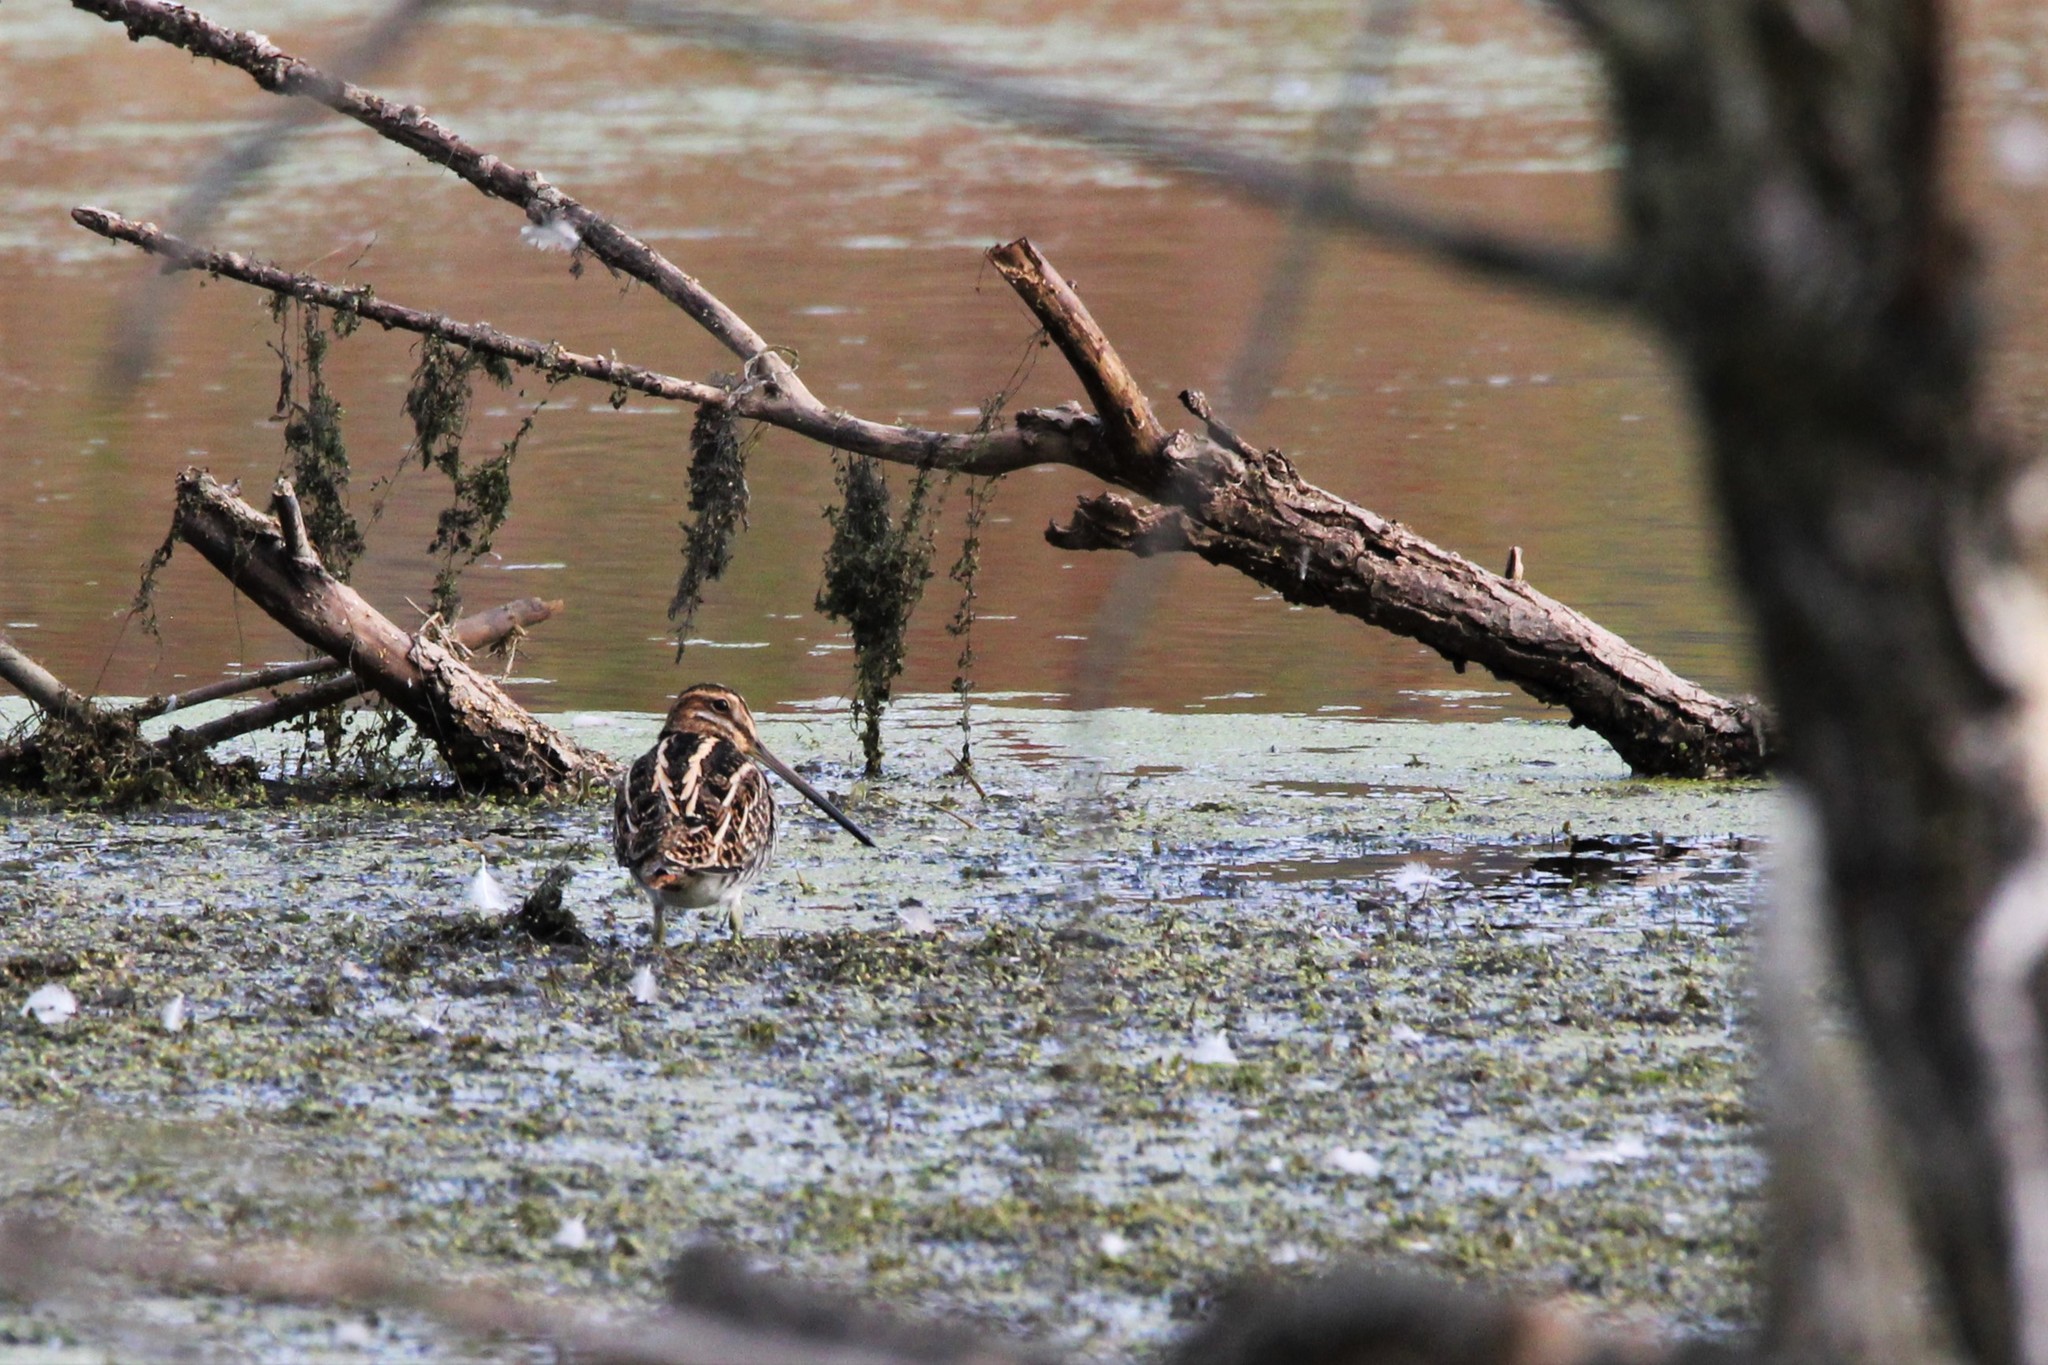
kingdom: Animalia
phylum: Chordata
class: Aves
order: Charadriiformes
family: Scolopacidae
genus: Gallinago
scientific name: Gallinago delicata
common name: Wilson's snipe
